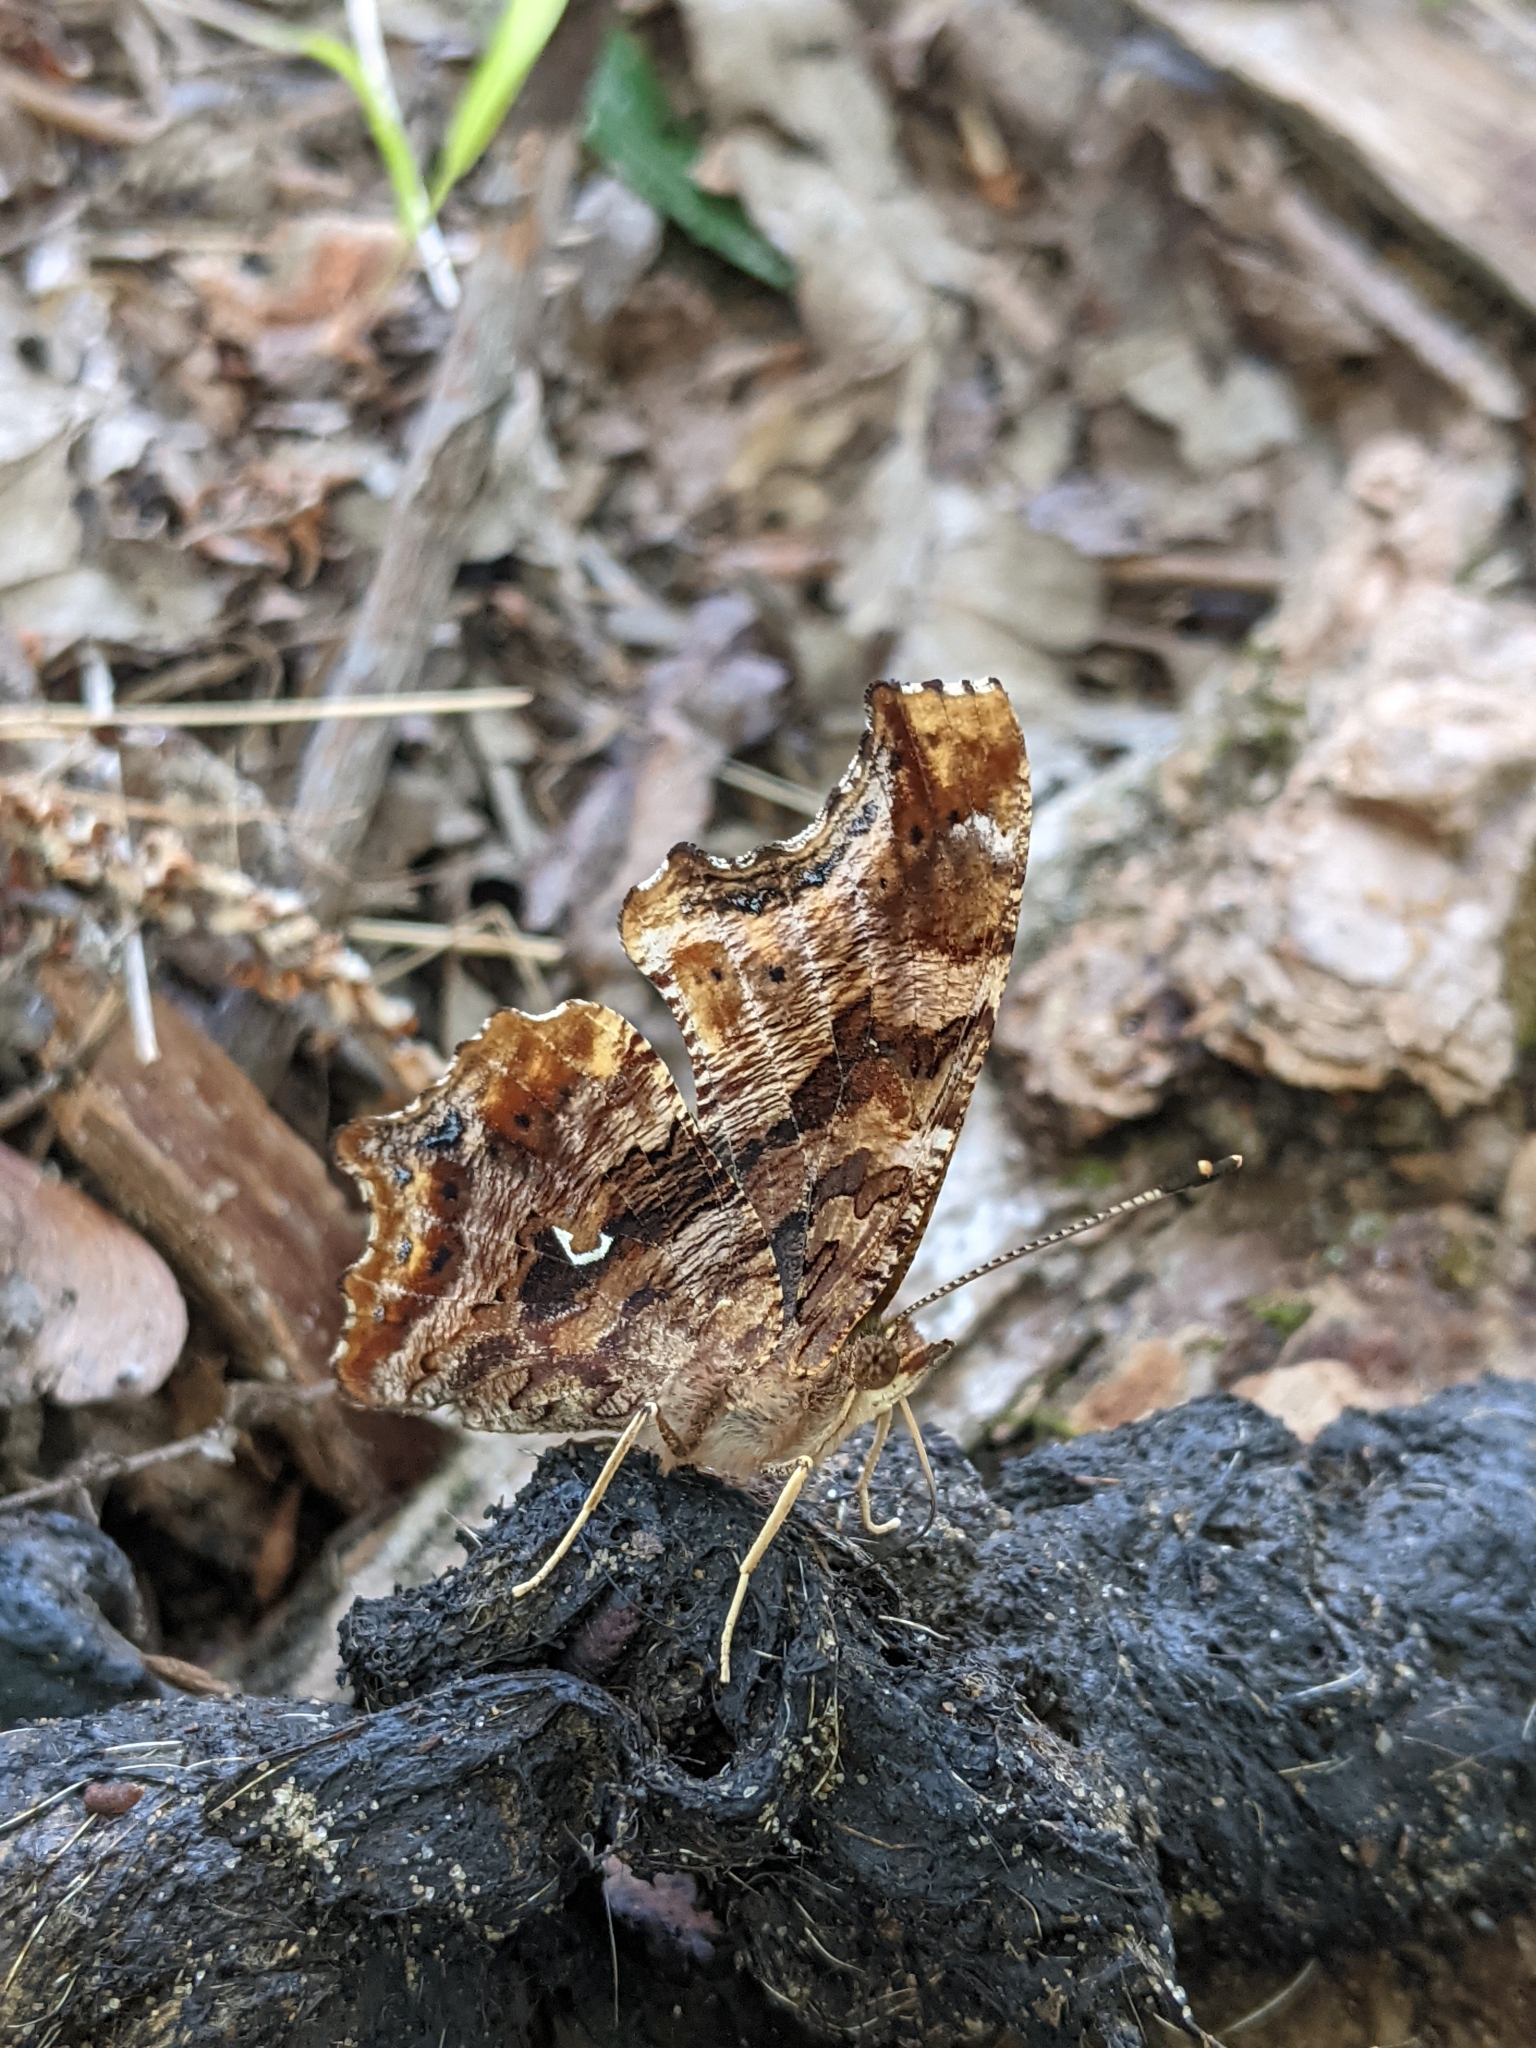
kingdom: Animalia
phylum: Arthropoda
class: Insecta
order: Lepidoptera
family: Nymphalidae
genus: Polygonia
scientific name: Polygonia comma
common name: Eastern comma
